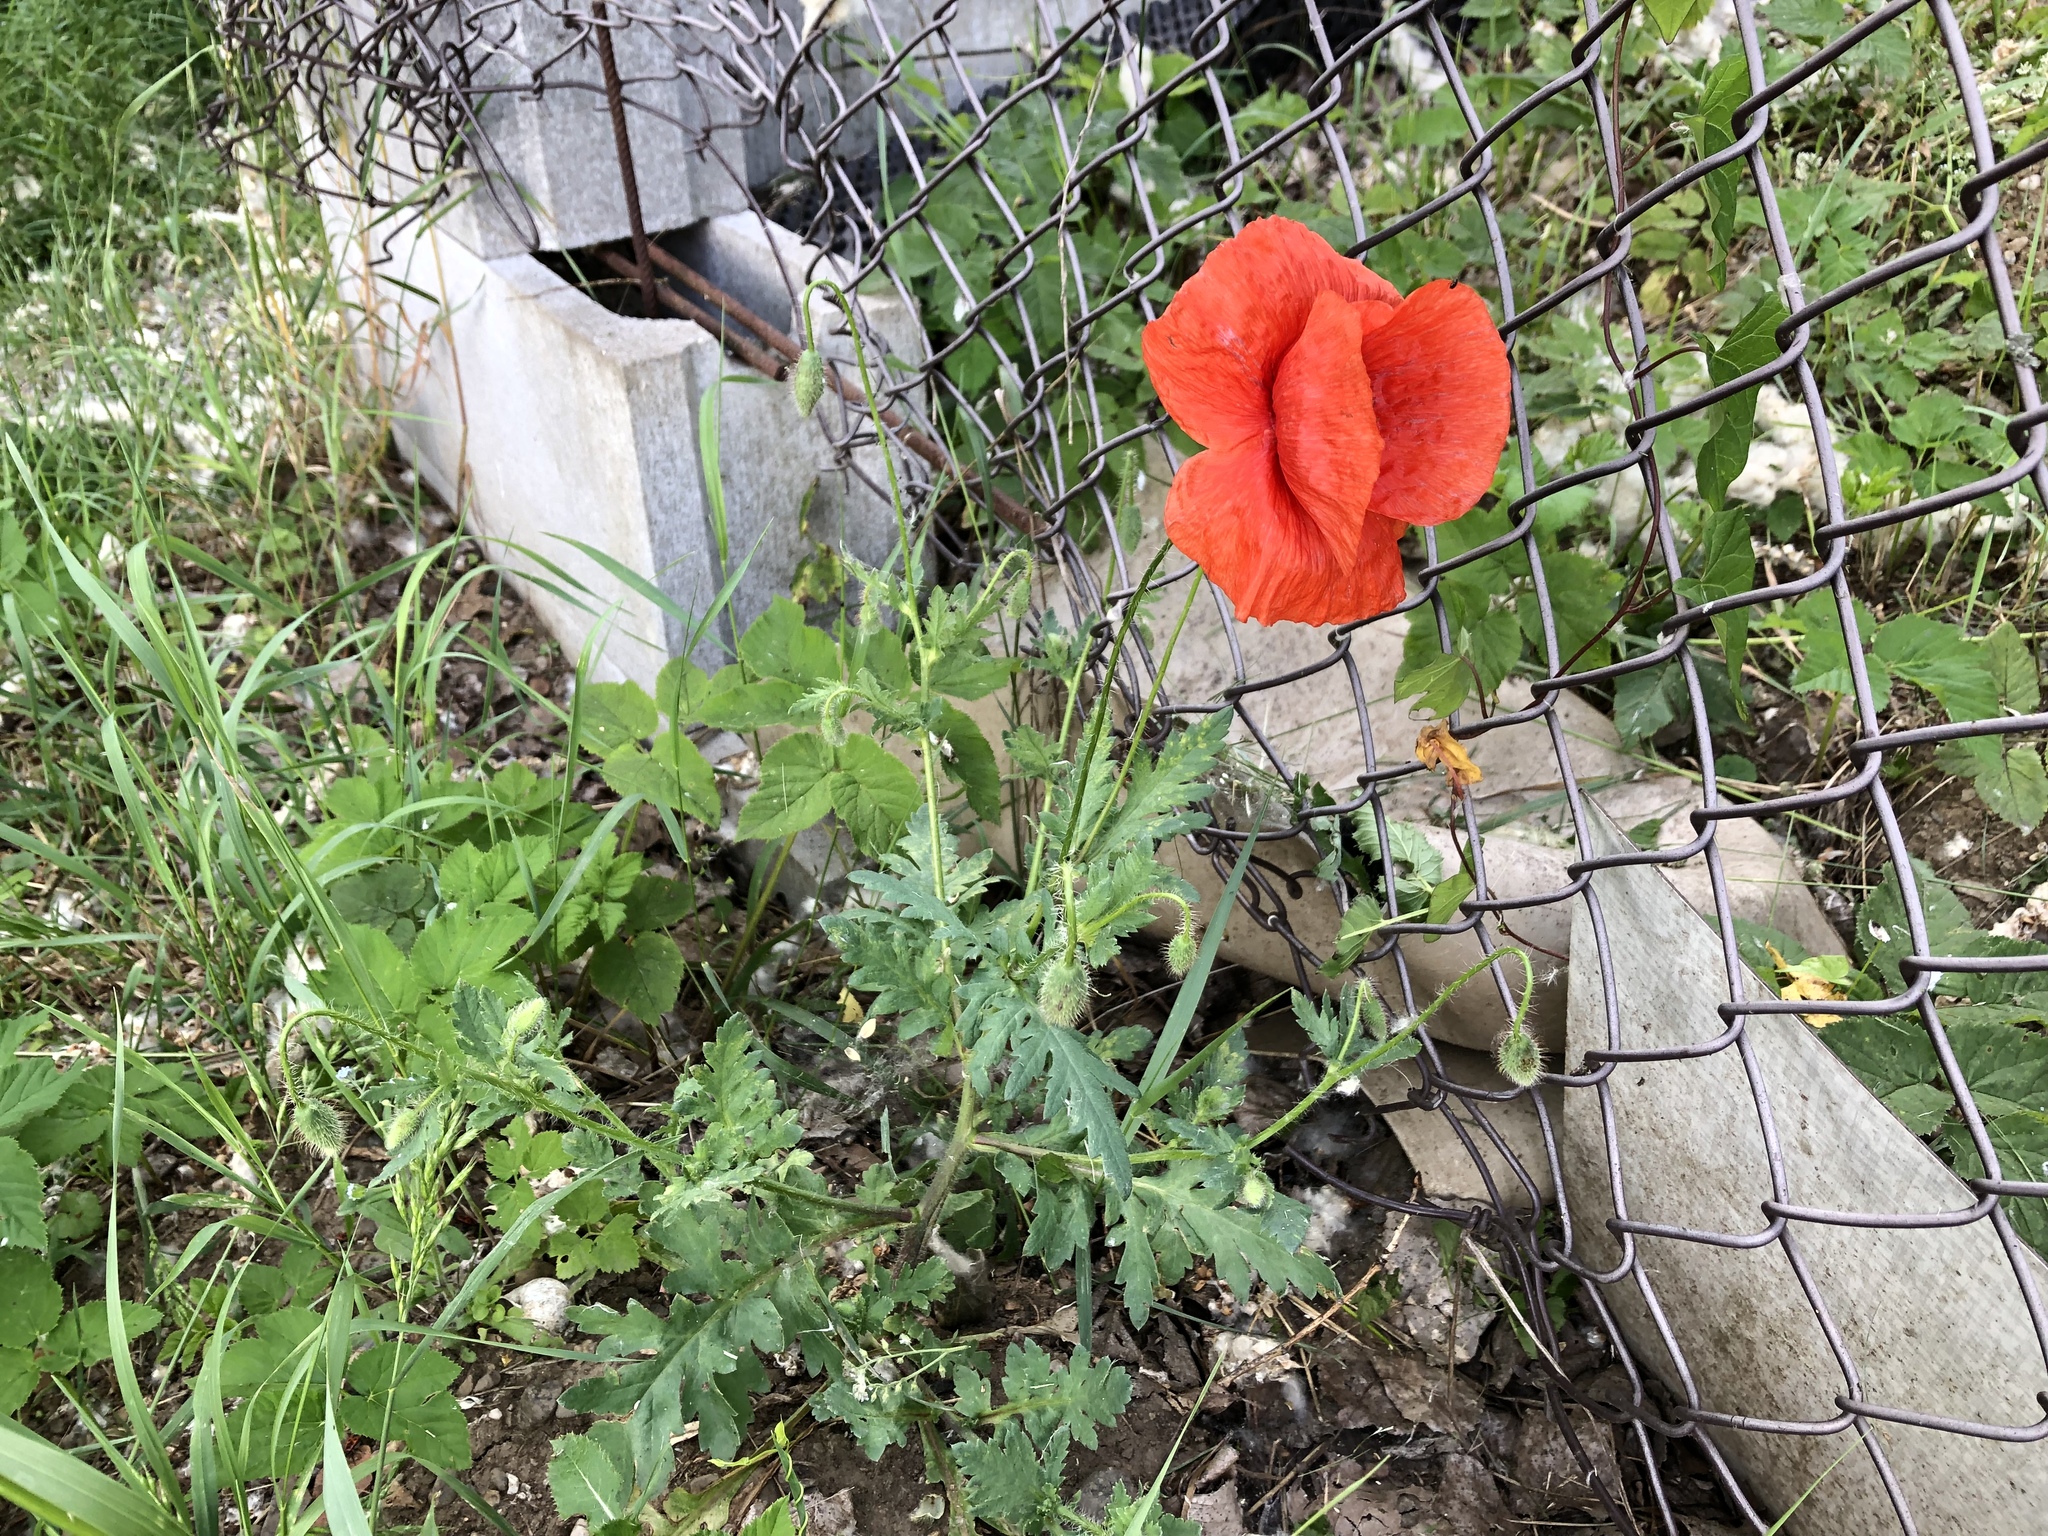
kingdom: Plantae
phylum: Tracheophyta
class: Magnoliopsida
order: Ranunculales
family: Papaveraceae
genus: Papaver
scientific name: Papaver rhoeas
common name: Corn poppy
